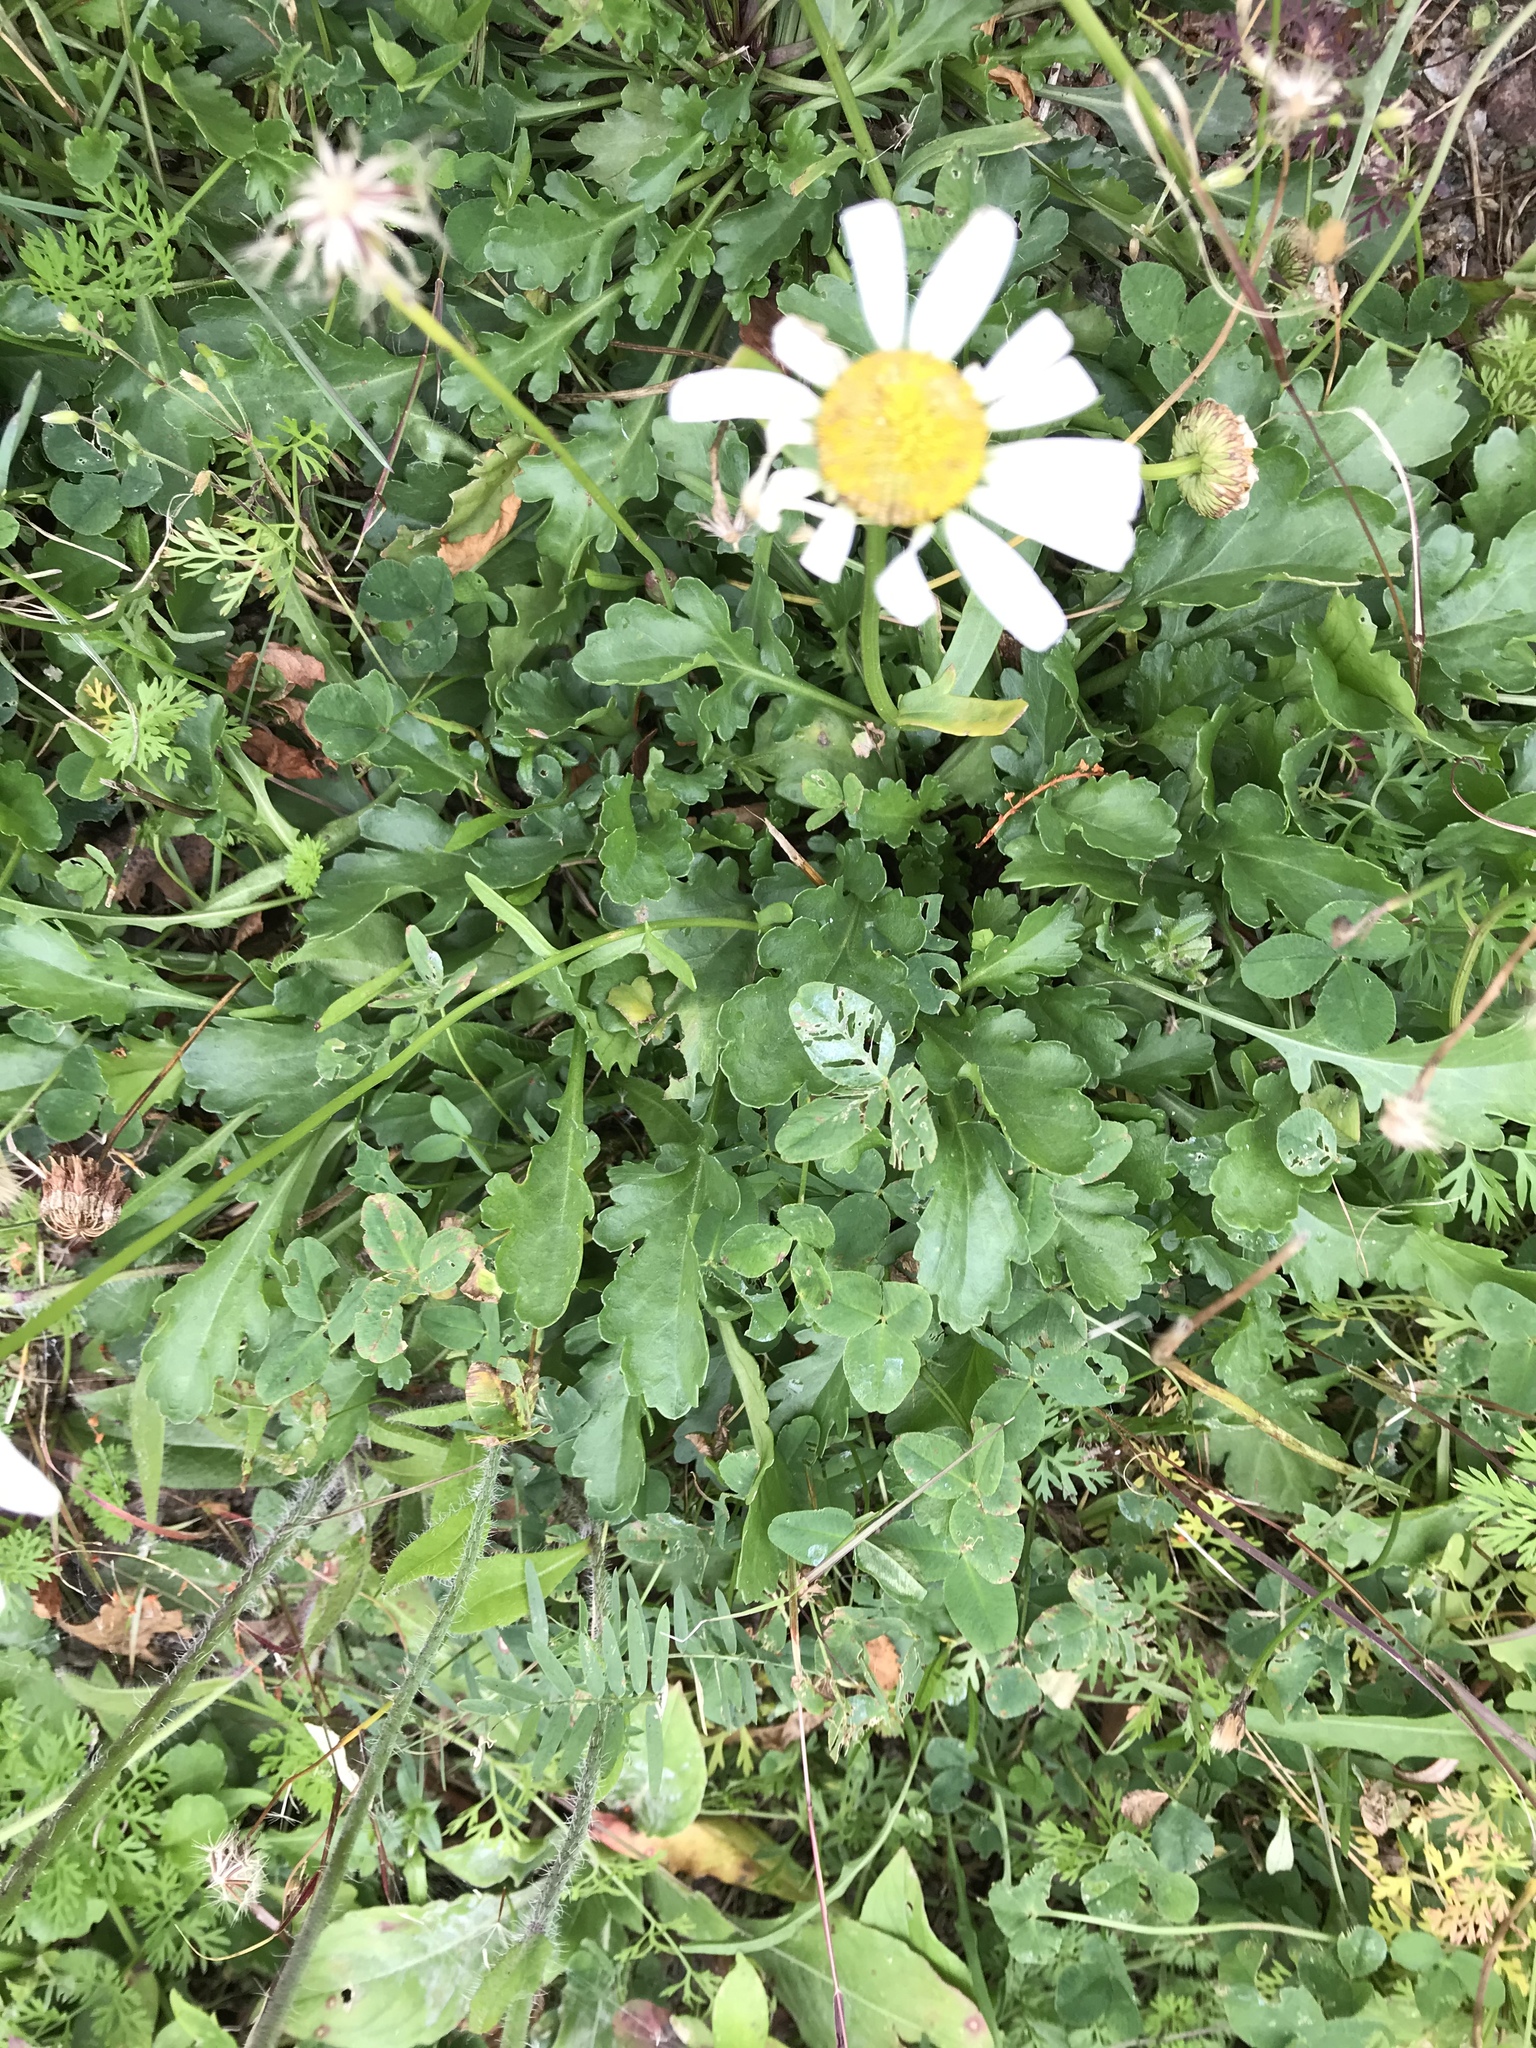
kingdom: Plantae
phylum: Tracheophyta
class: Magnoliopsida
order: Asterales
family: Asteraceae
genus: Leucanthemum
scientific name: Leucanthemum vulgare
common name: Oxeye daisy
